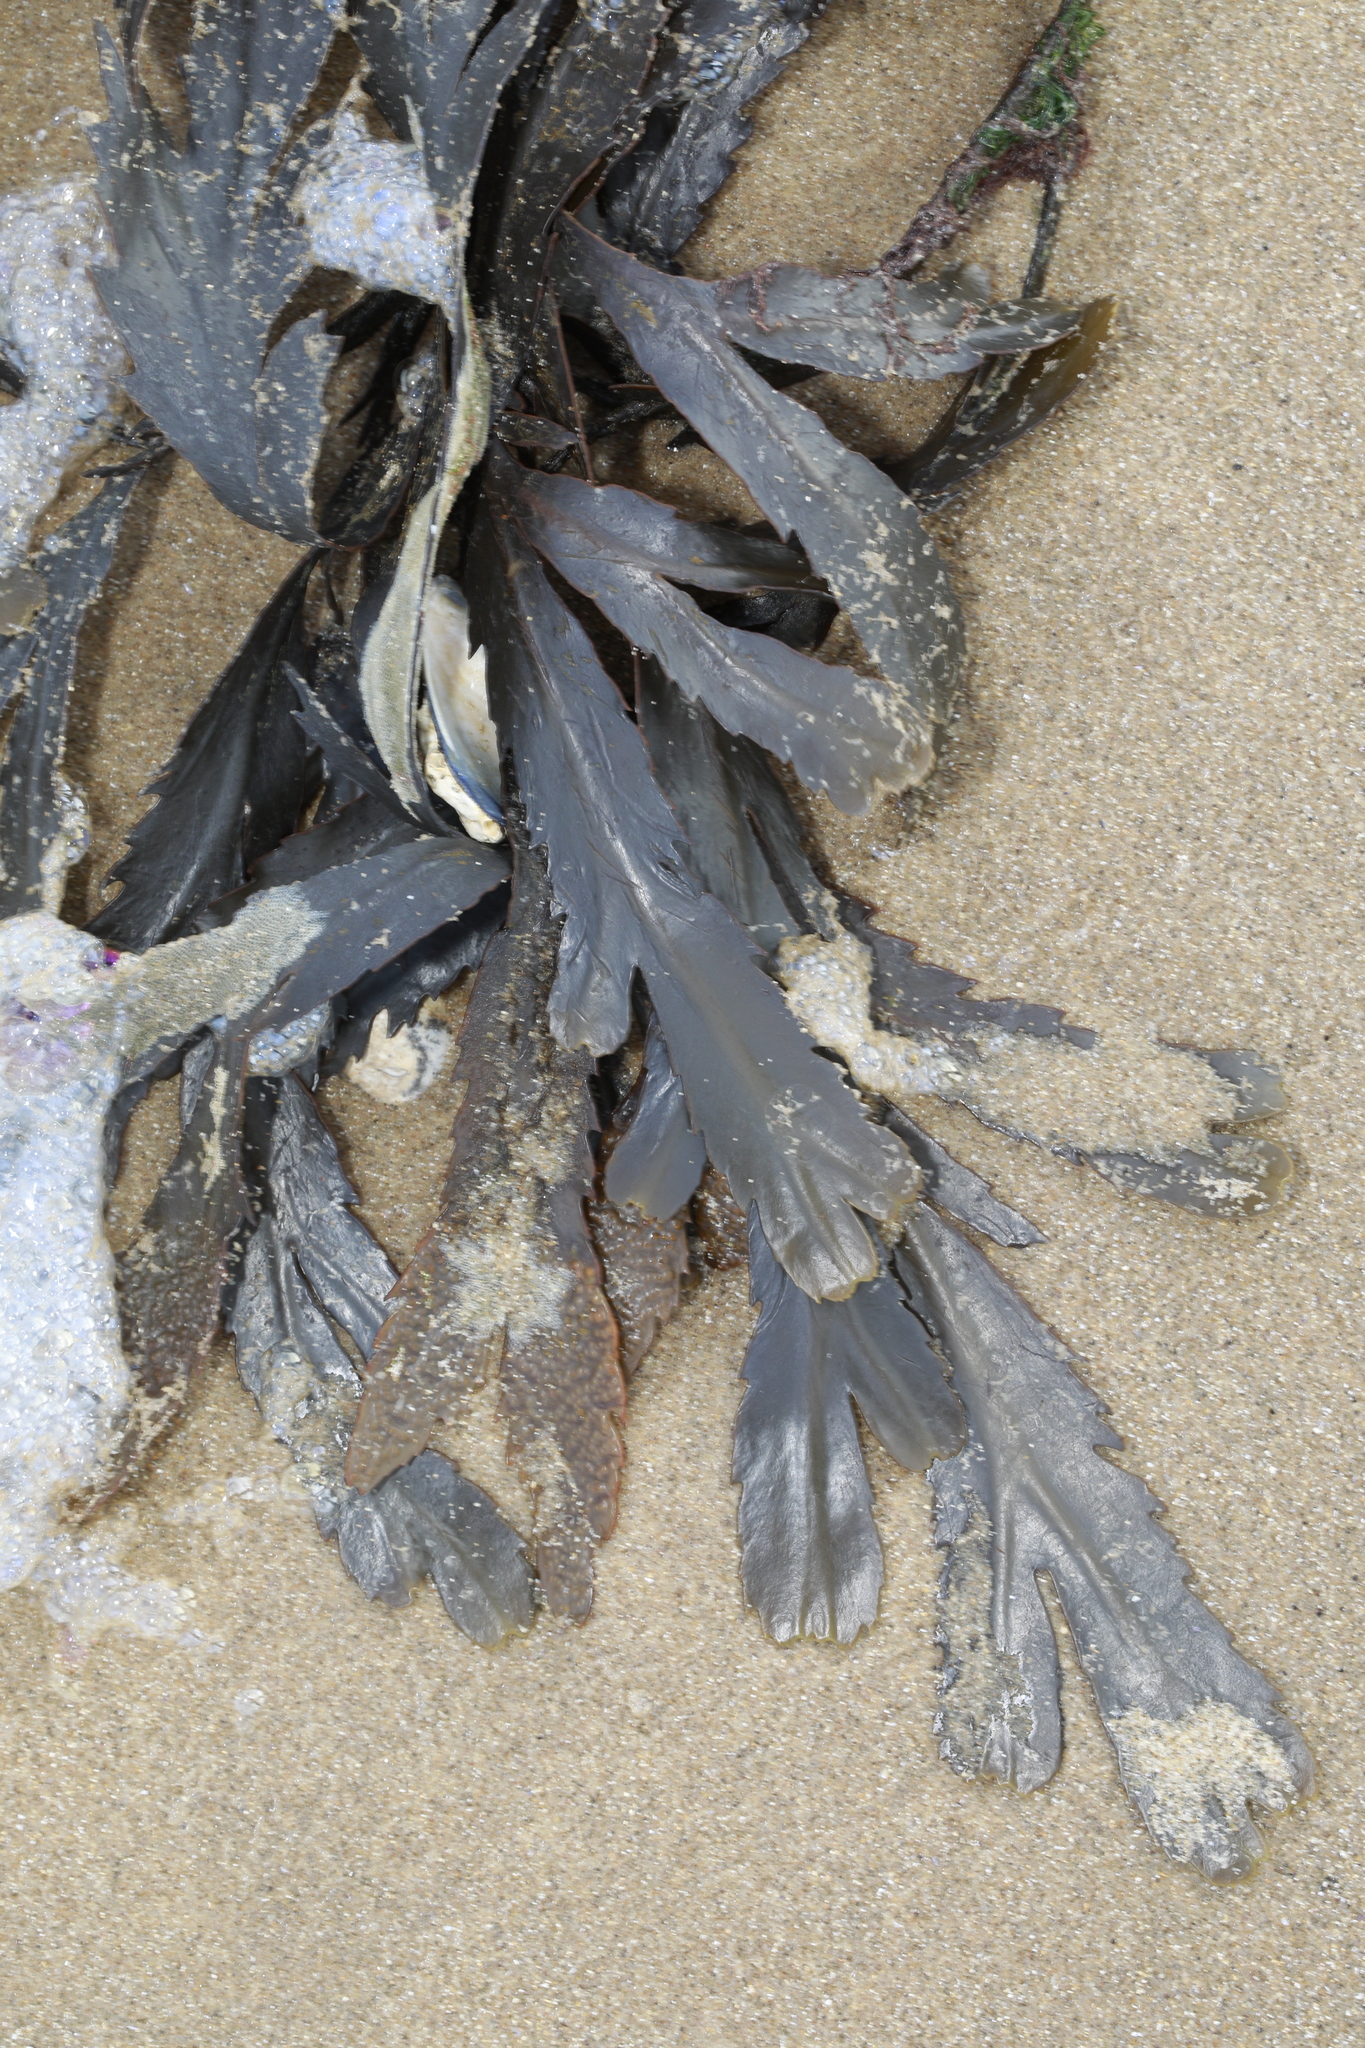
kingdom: Chromista
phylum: Ochrophyta
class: Phaeophyceae
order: Fucales
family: Fucaceae
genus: Fucus
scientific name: Fucus serratus
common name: Toothed wrack
